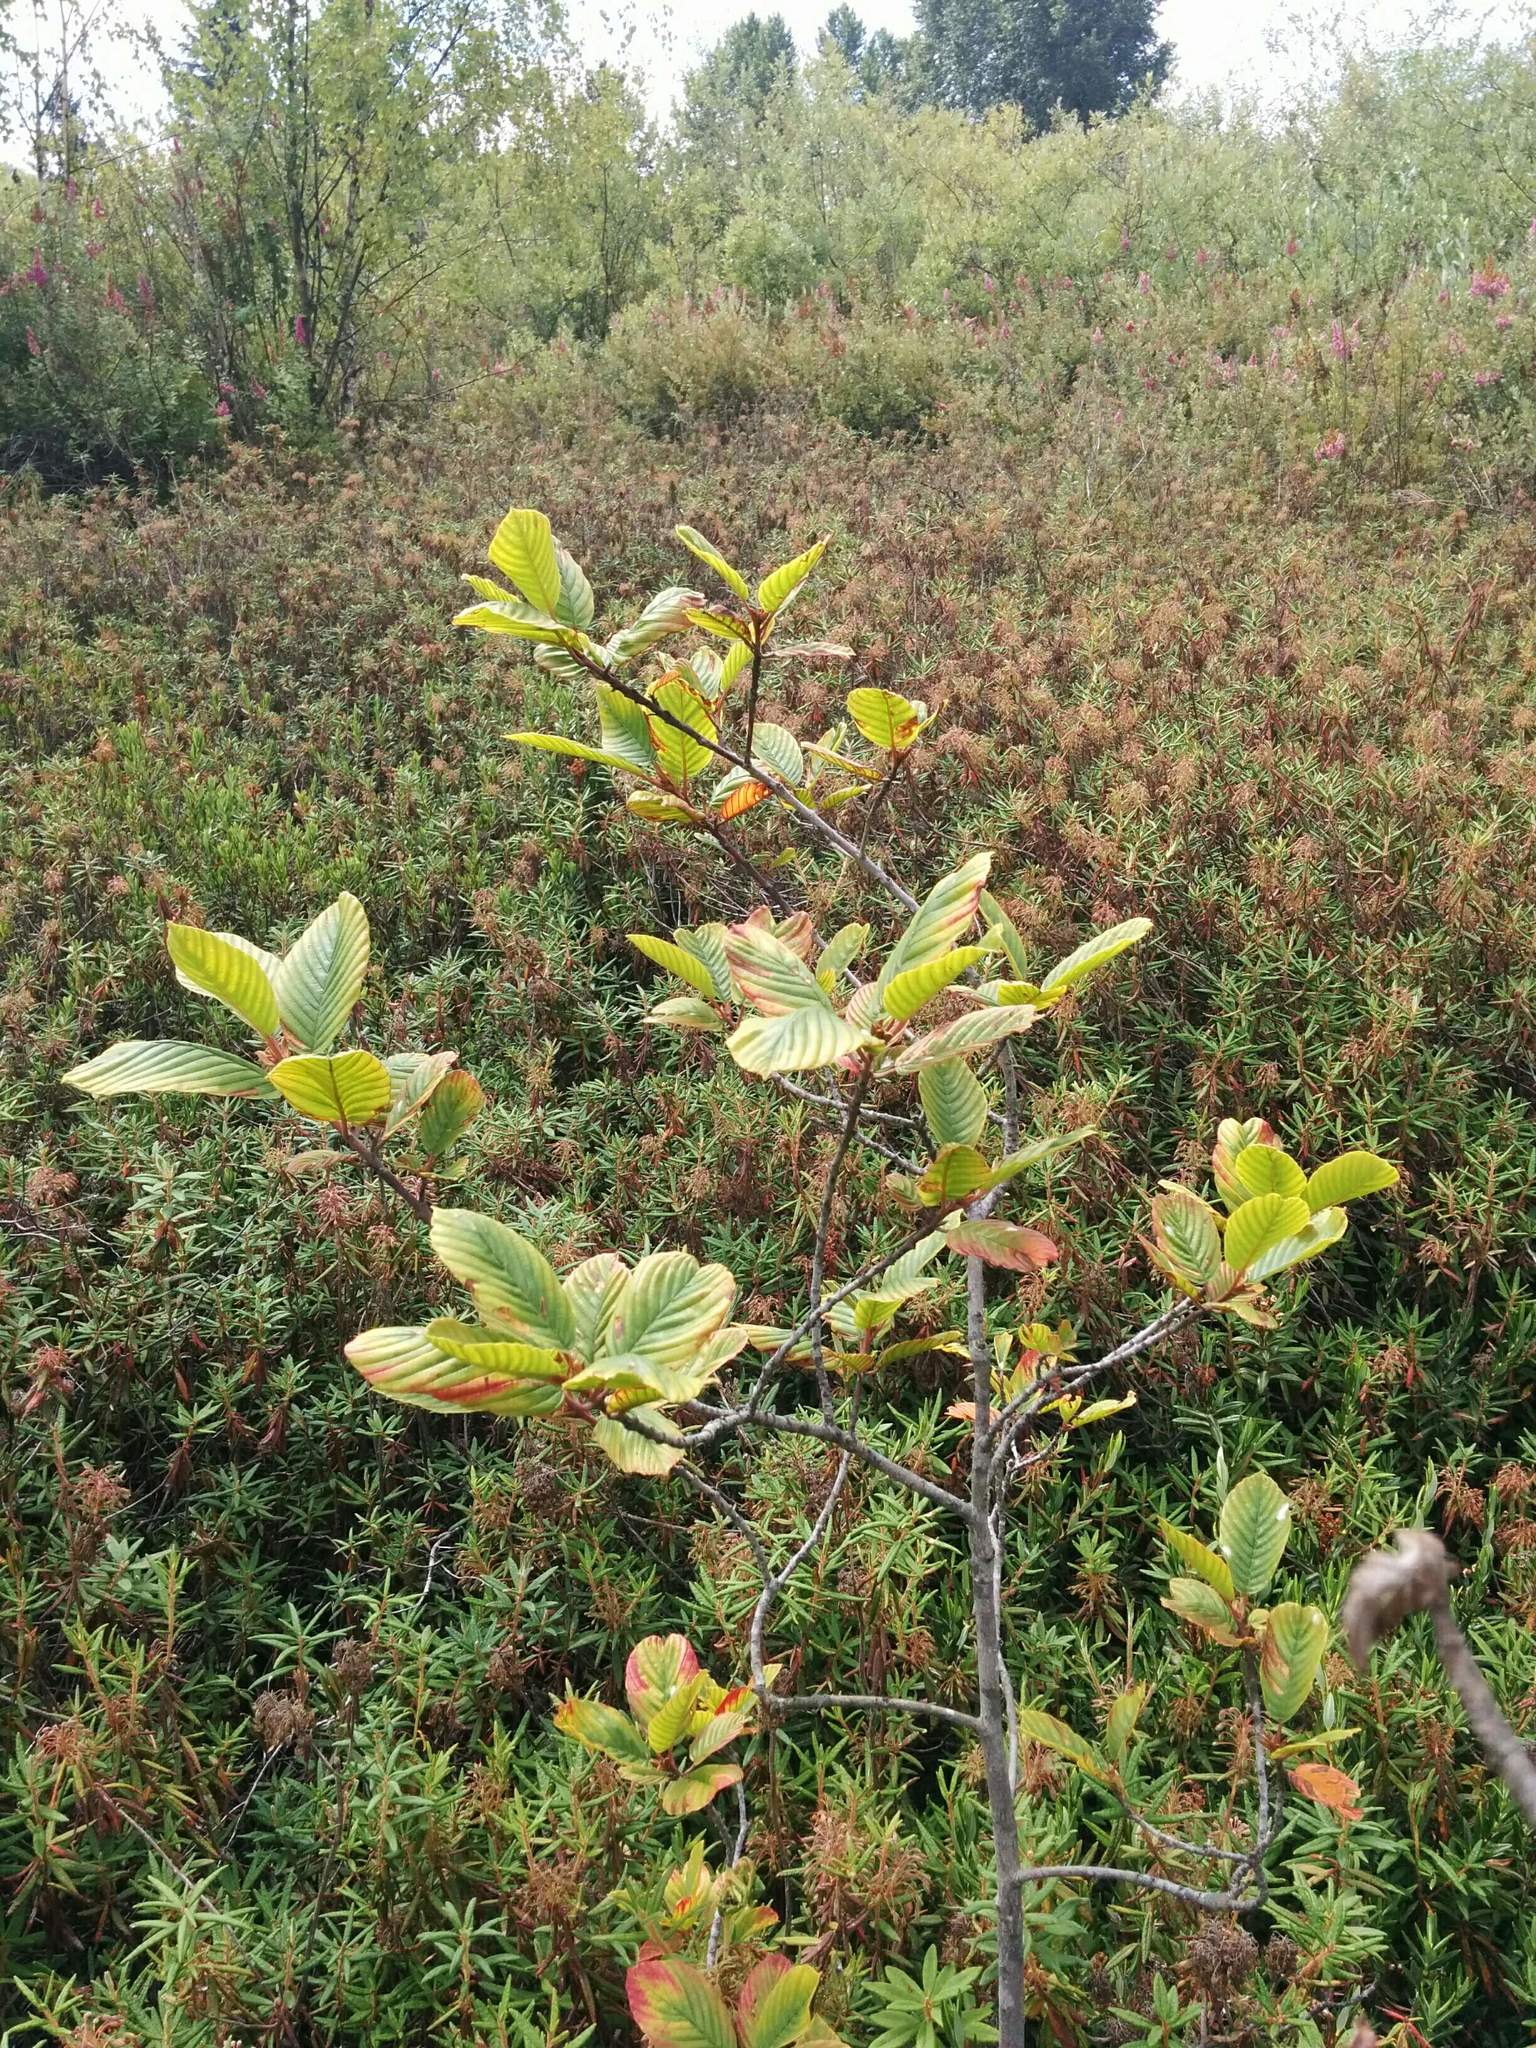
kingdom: Plantae
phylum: Tracheophyta
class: Magnoliopsida
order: Rosales
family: Rhamnaceae
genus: Frangula
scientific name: Frangula purshiana
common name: Cascara buckthorn
